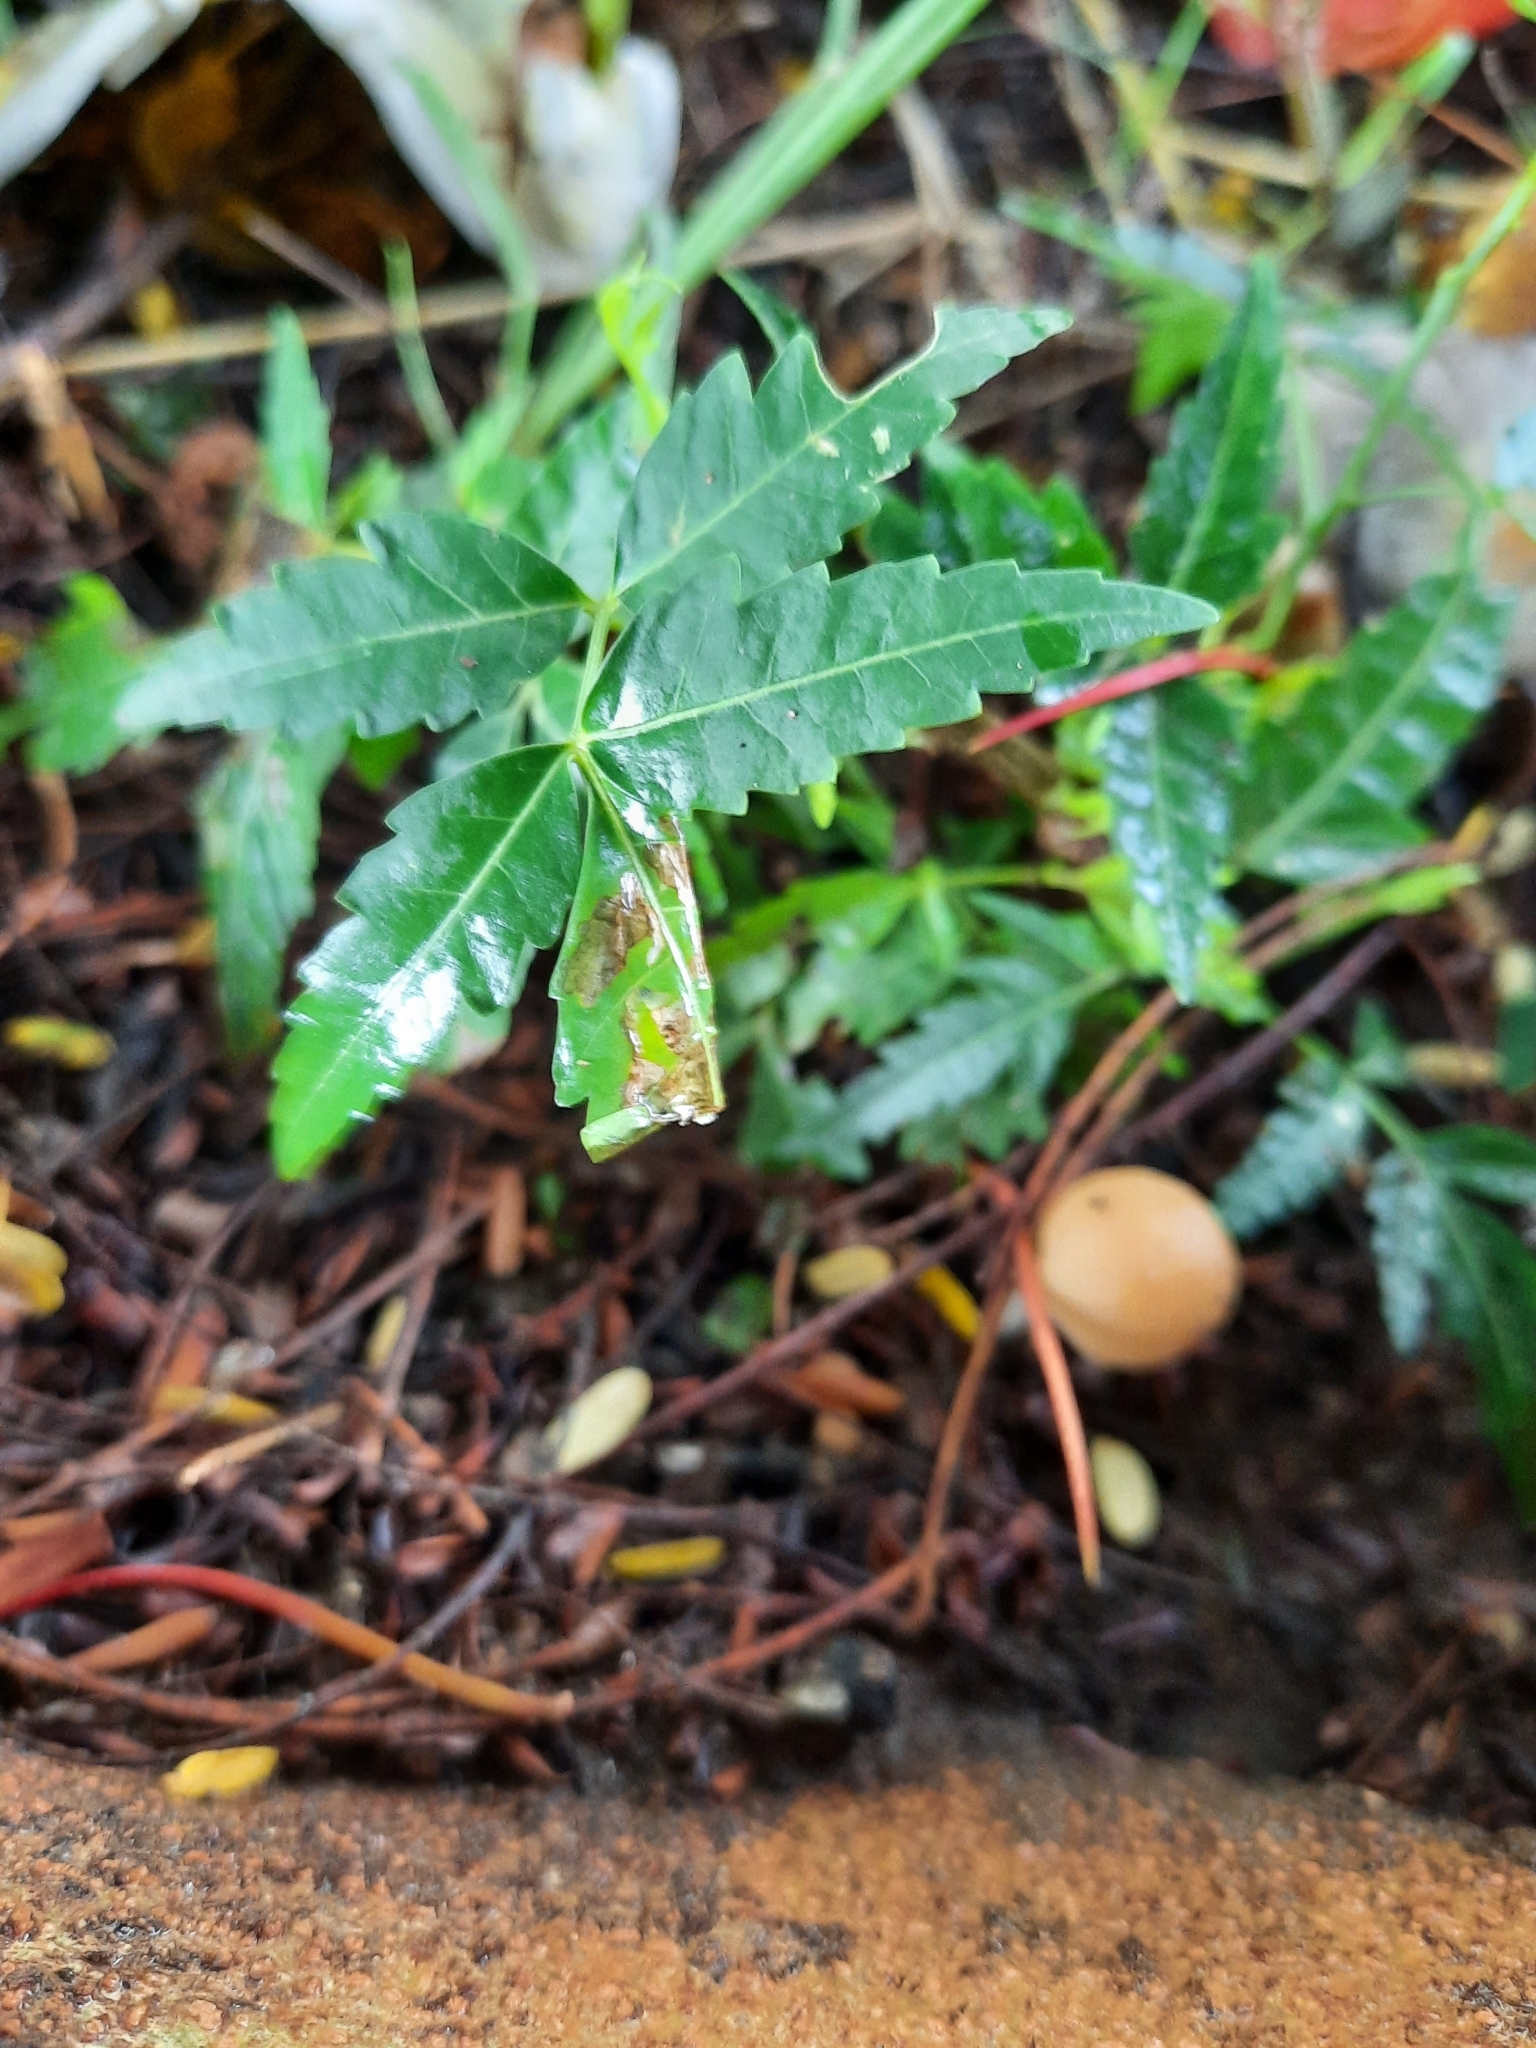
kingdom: Plantae
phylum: Tracheophyta
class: Magnoliopsida
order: Sapindales
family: Meliaceae
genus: Azadirachta
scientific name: Azadirachta indica
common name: Neem
